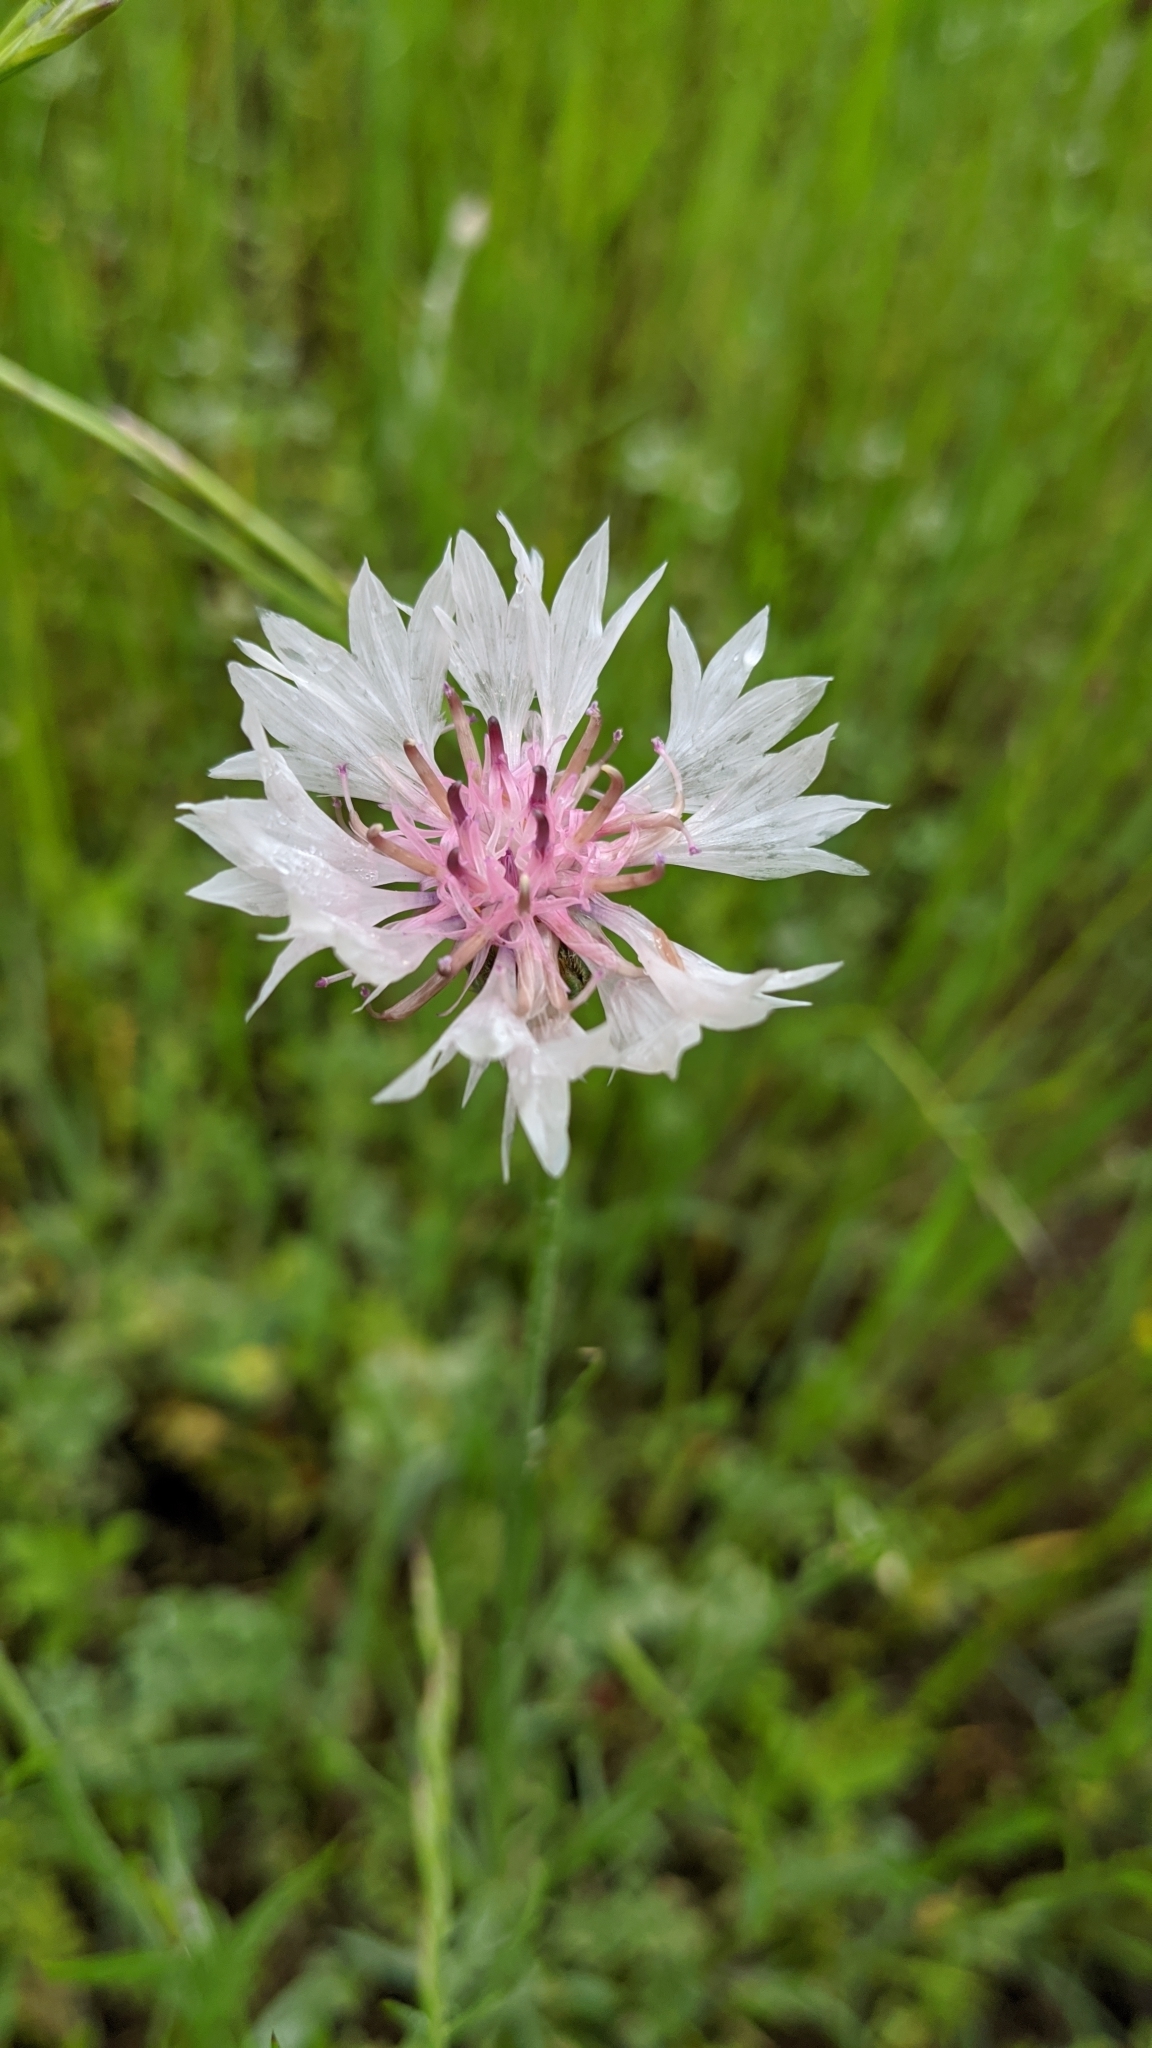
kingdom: Plantae
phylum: Tracheophyta
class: Magnoliopsida
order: Asterales
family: Asteraceae
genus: Centaurea
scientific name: Centaurea cyanus
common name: Cornflower
